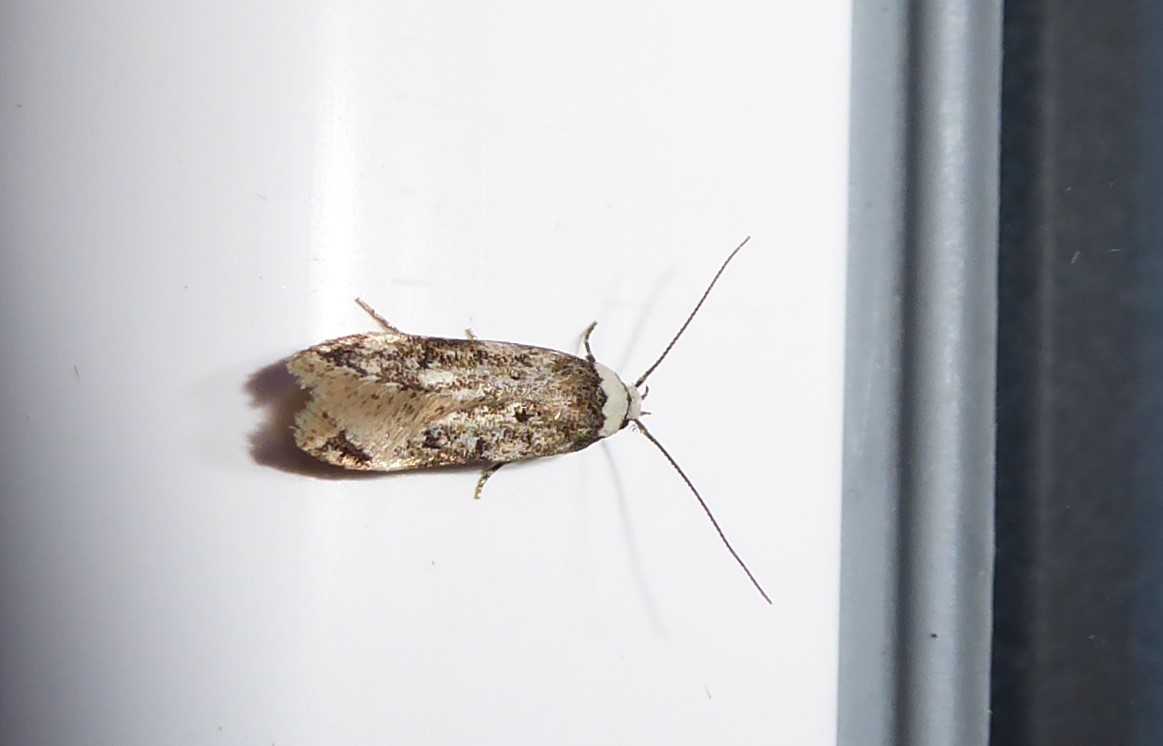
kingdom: Animalia
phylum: Arthropoda
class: Insecta
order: Lepidoptera
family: Oecophoridae
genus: Endrosis
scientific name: Endrosis sarcitrella
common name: White-shouldered house moth
